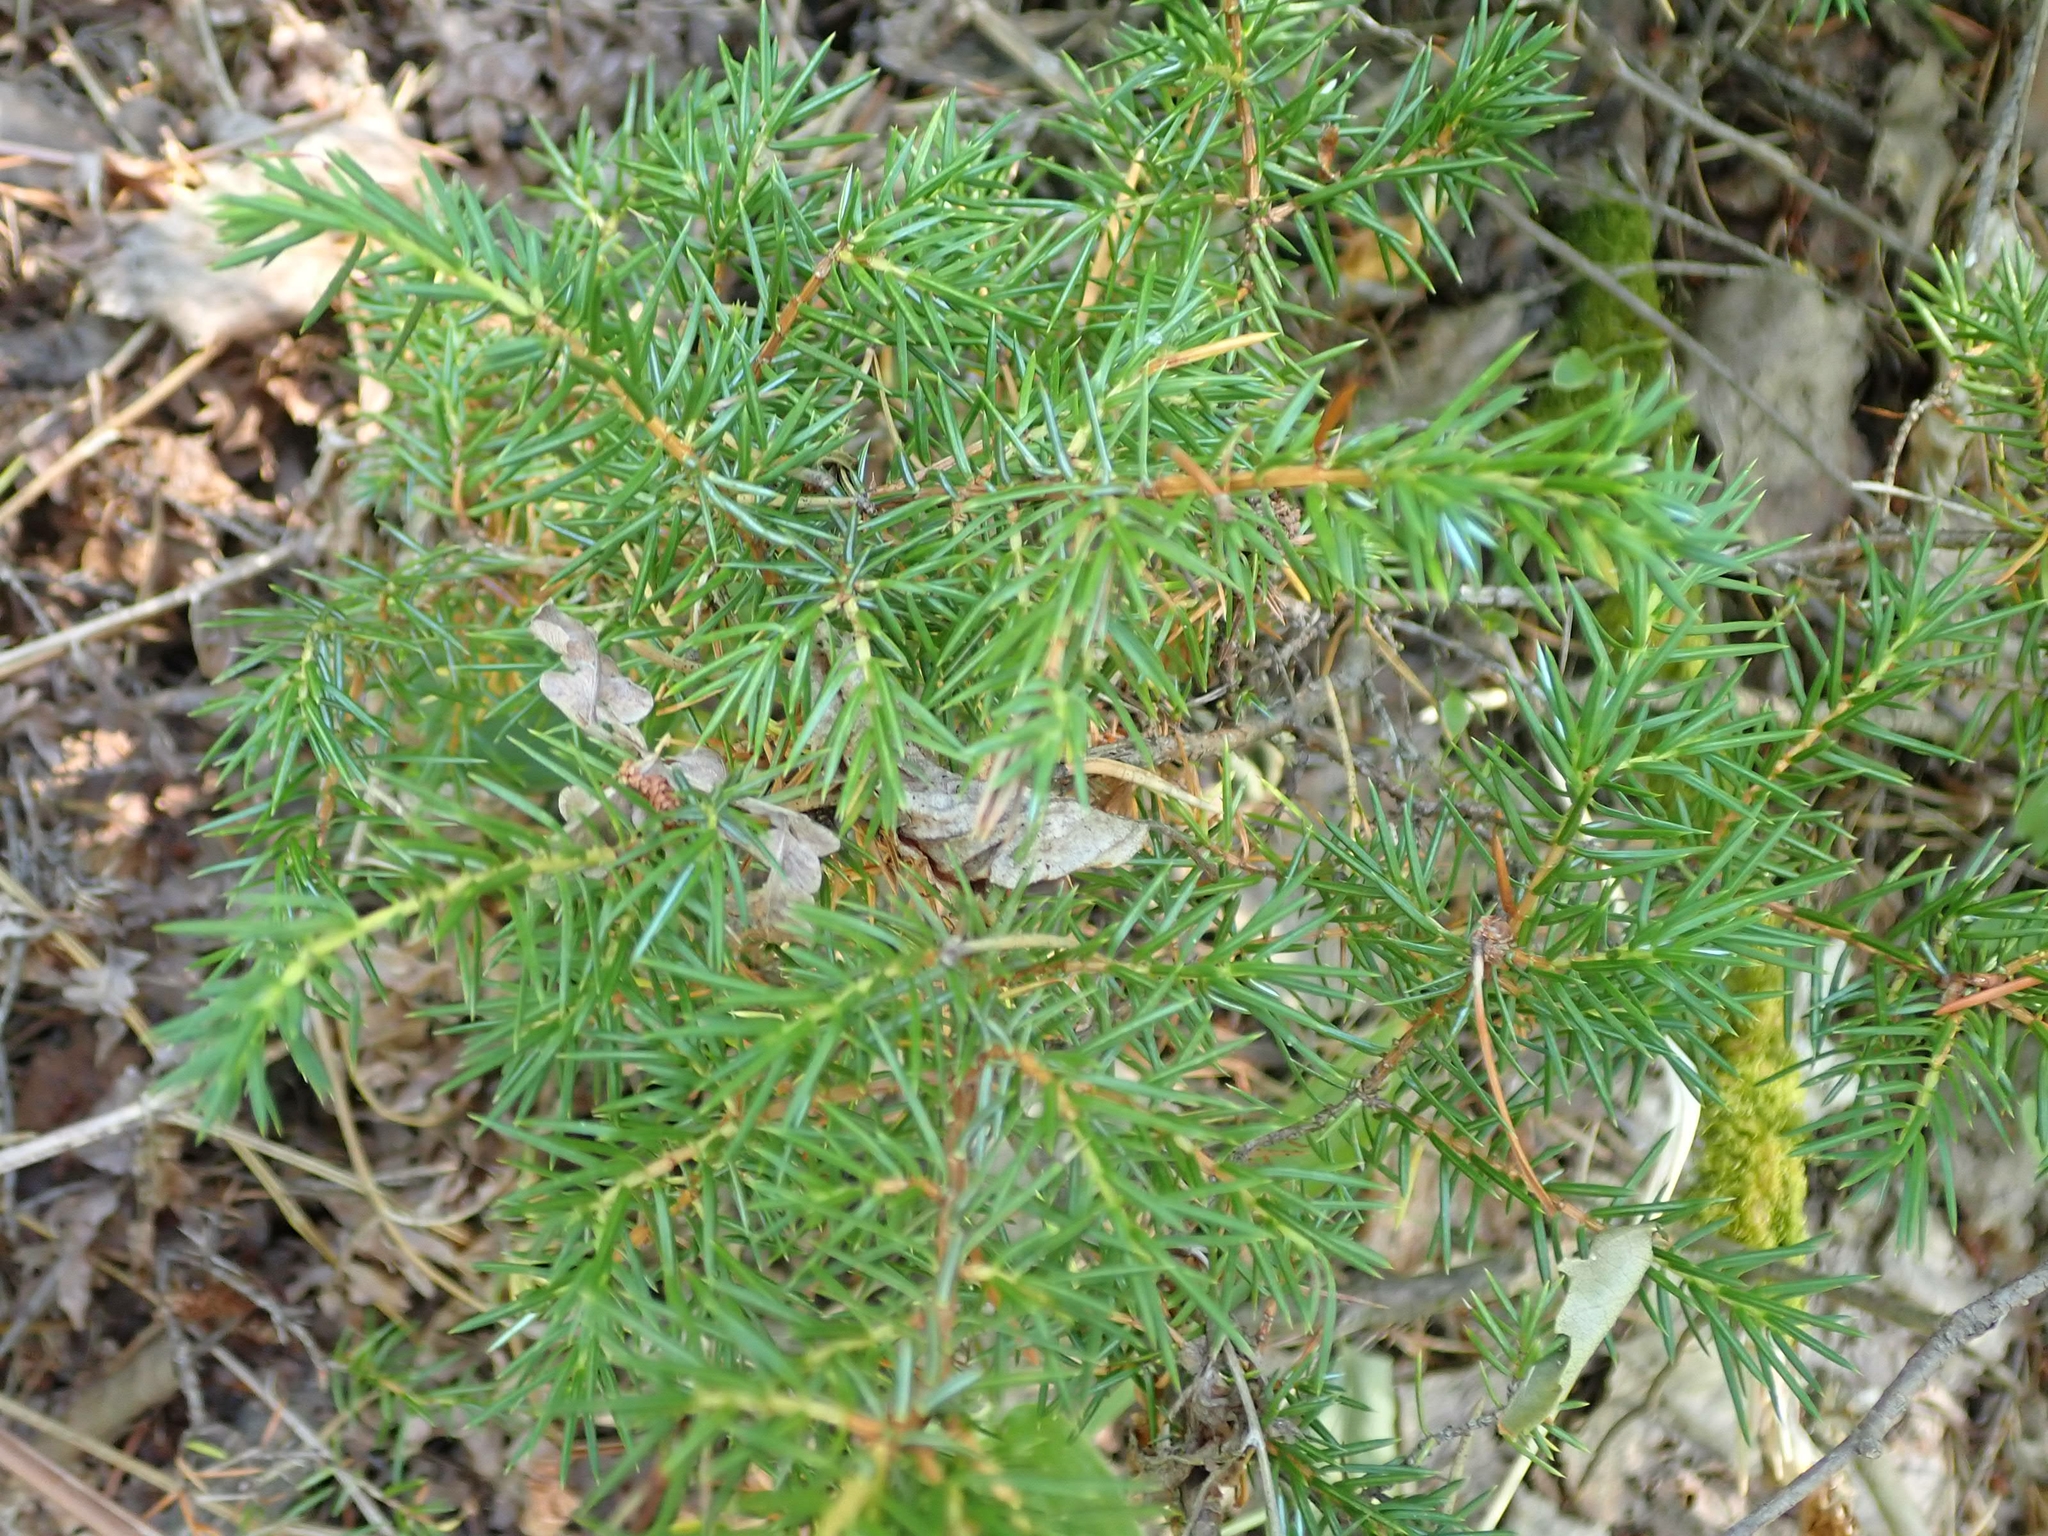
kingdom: Plantae
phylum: Tracheophyta
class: Pinopsida
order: Pinales
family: Cupressaceae
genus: Juniperus
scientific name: Juniperus communis
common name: Common juniper
